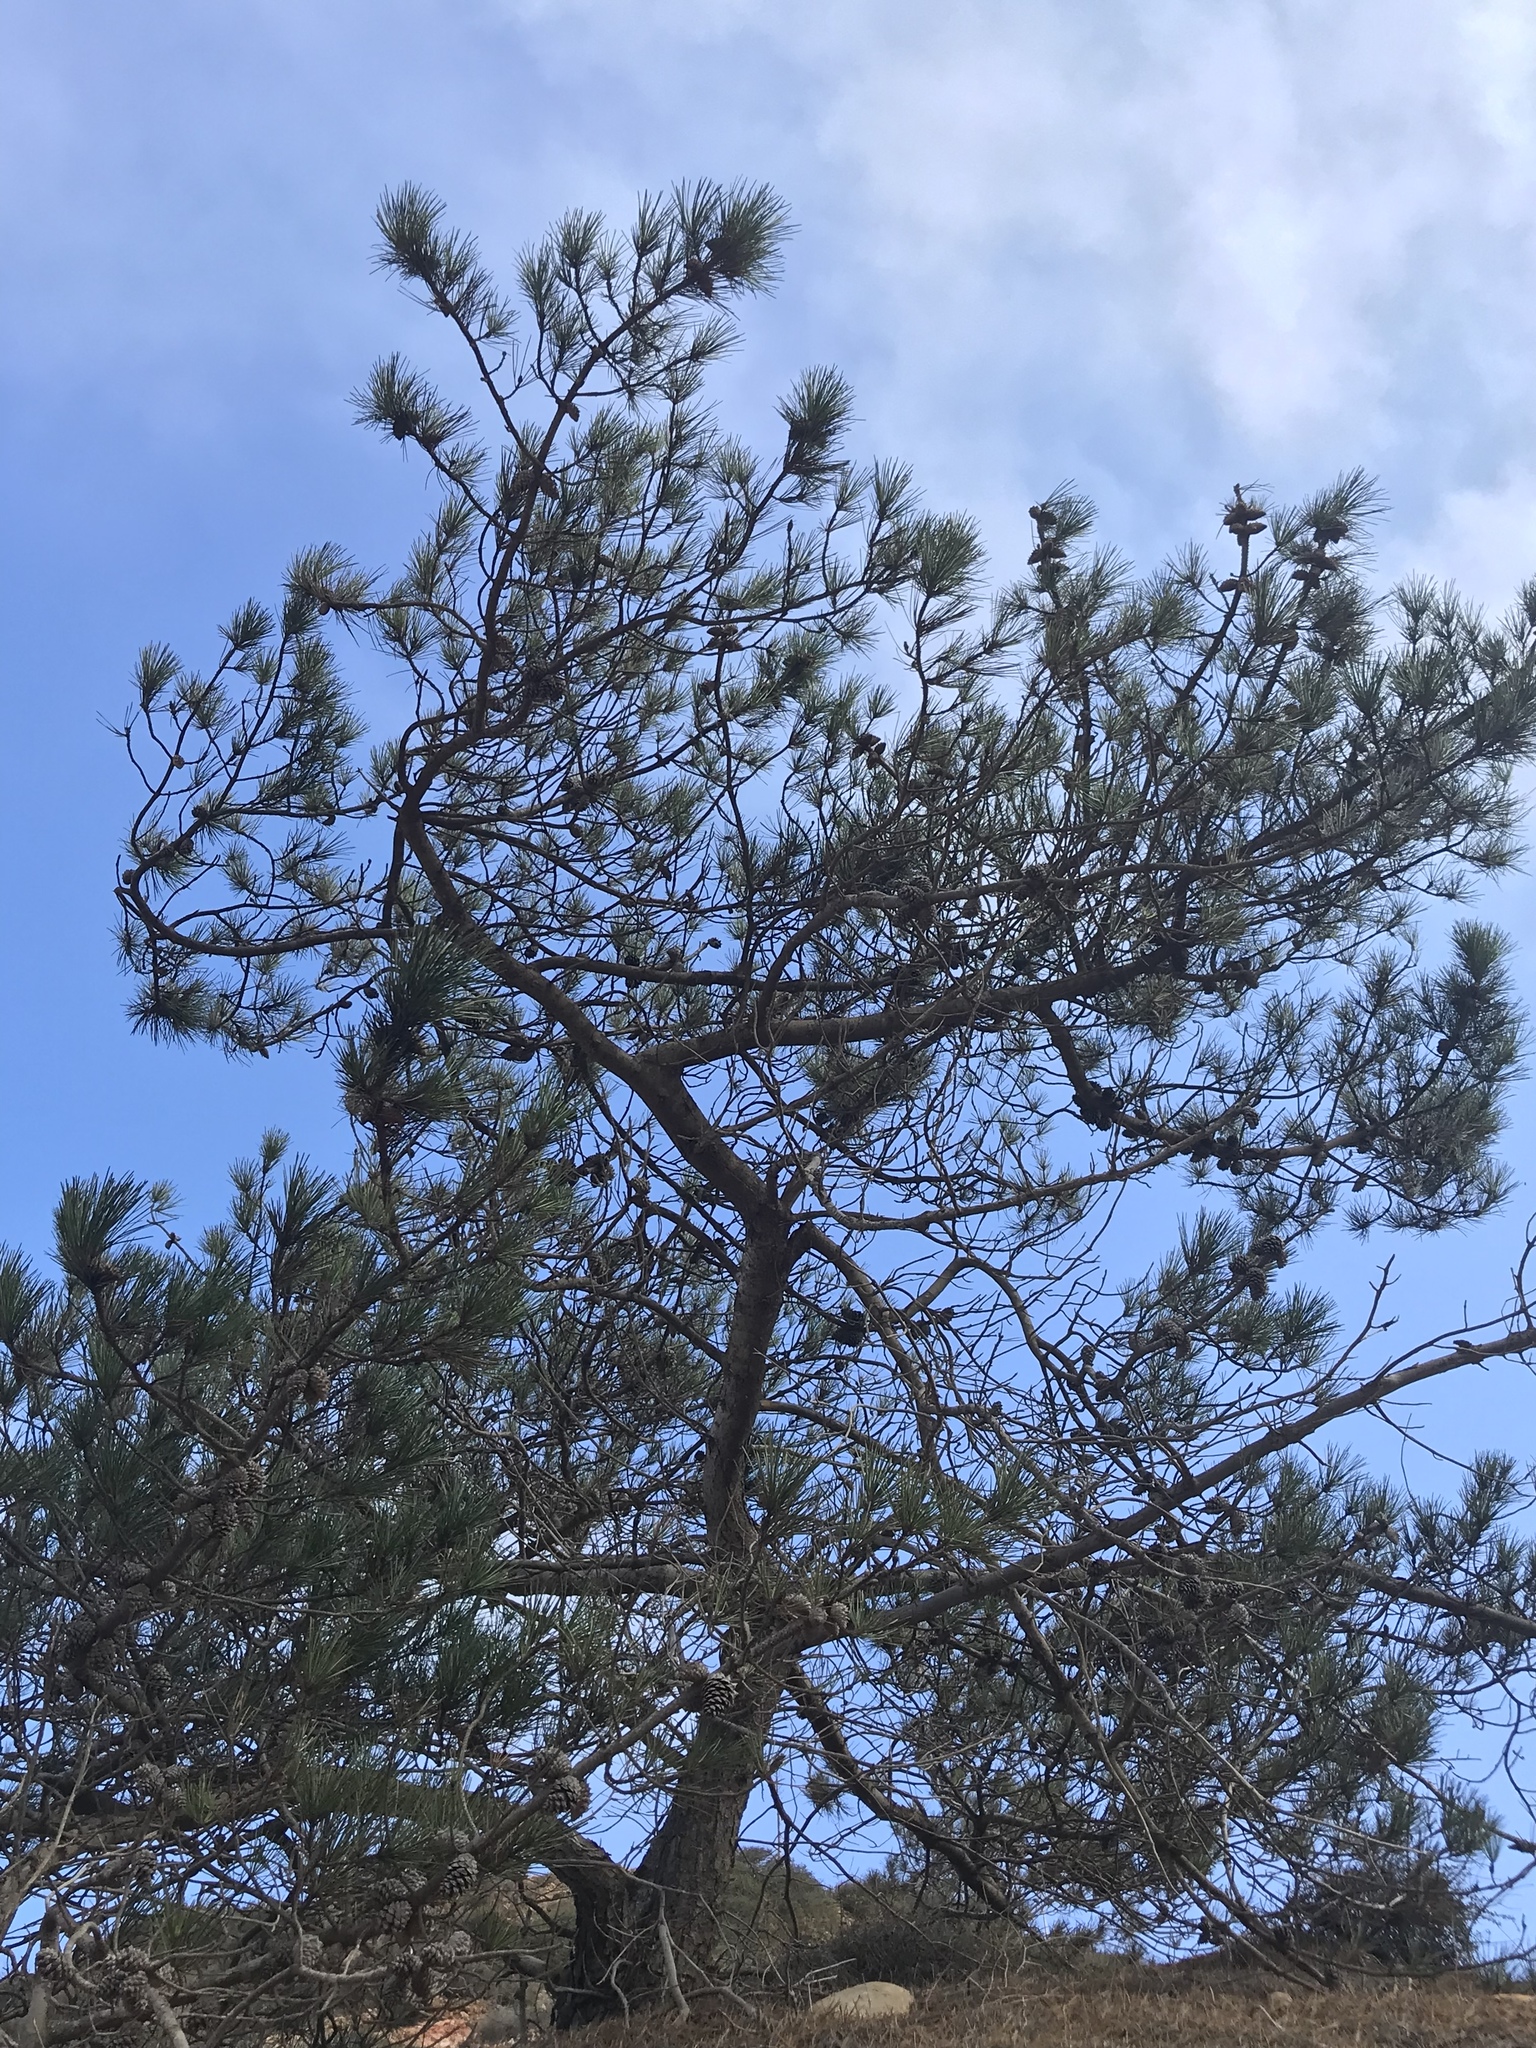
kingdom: Plantae
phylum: Tracheophyta
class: Pinopsida
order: Pinales
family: Pinaceae
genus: Pinus
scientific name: Pinus muricata
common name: Bishop pine
